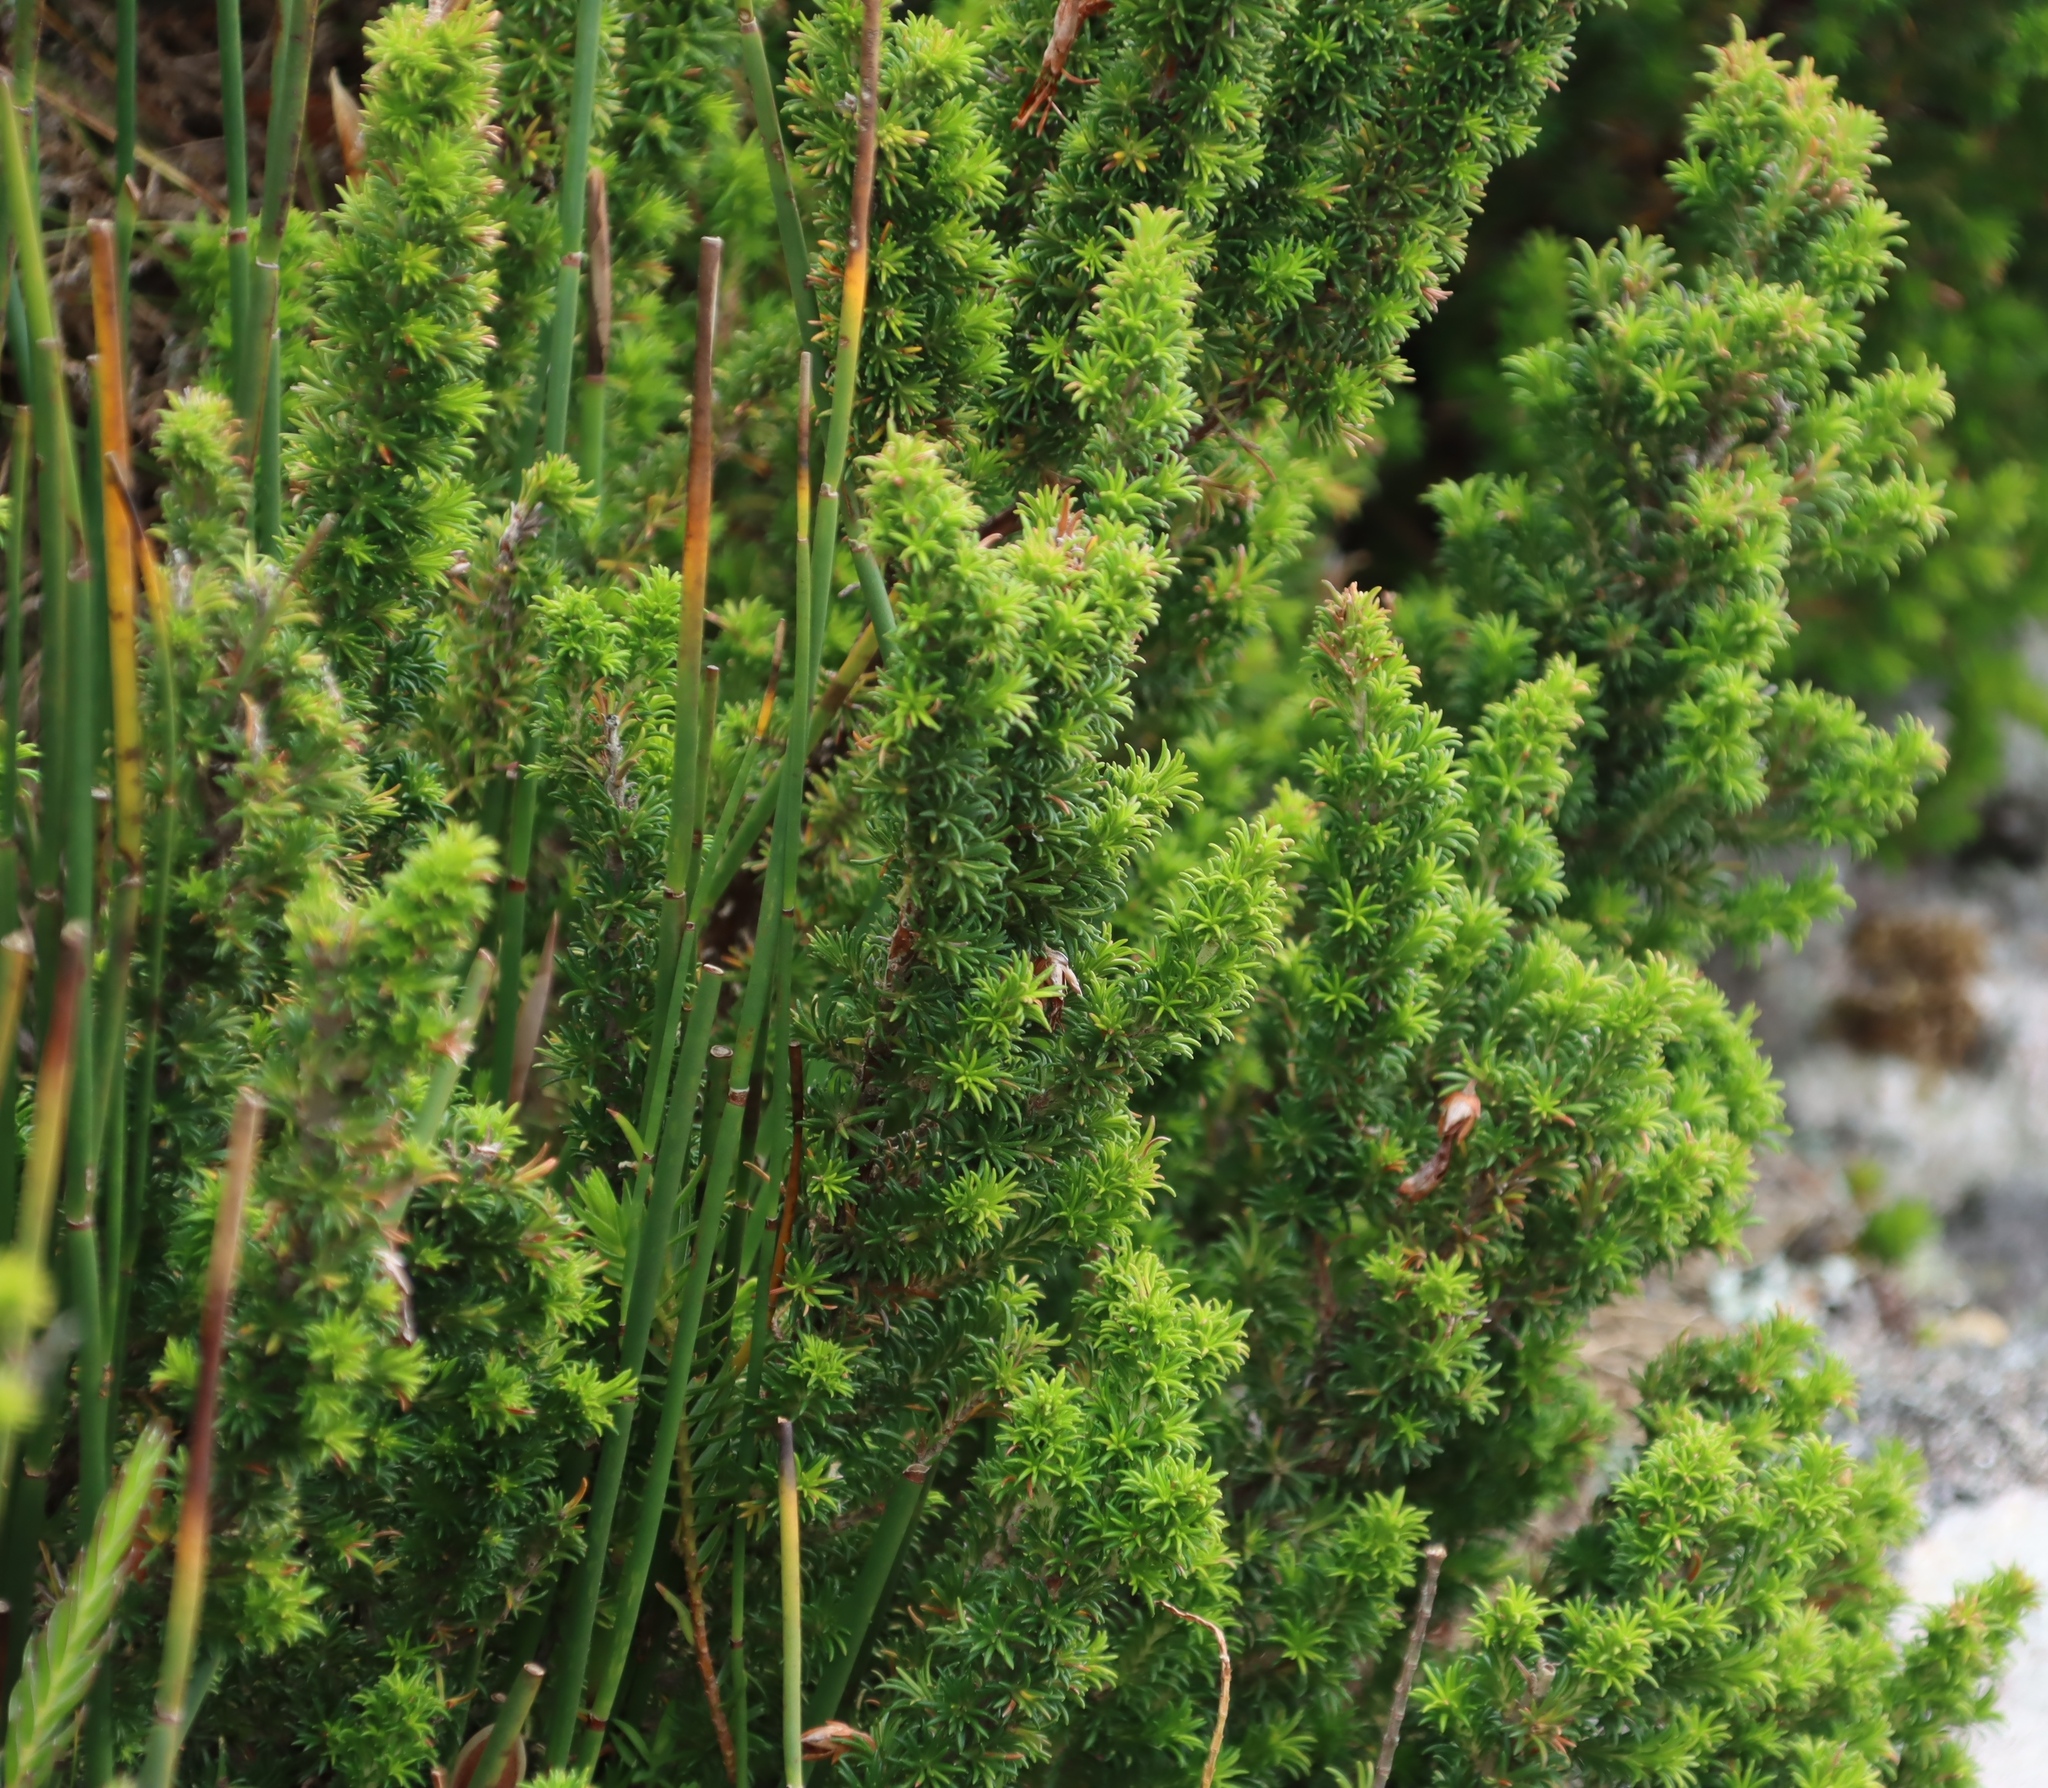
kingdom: Plantae
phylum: Tracheophyta
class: Magnoliopsida
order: Ericales
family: Ericaceae
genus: Erica
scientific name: Erica coccinea
